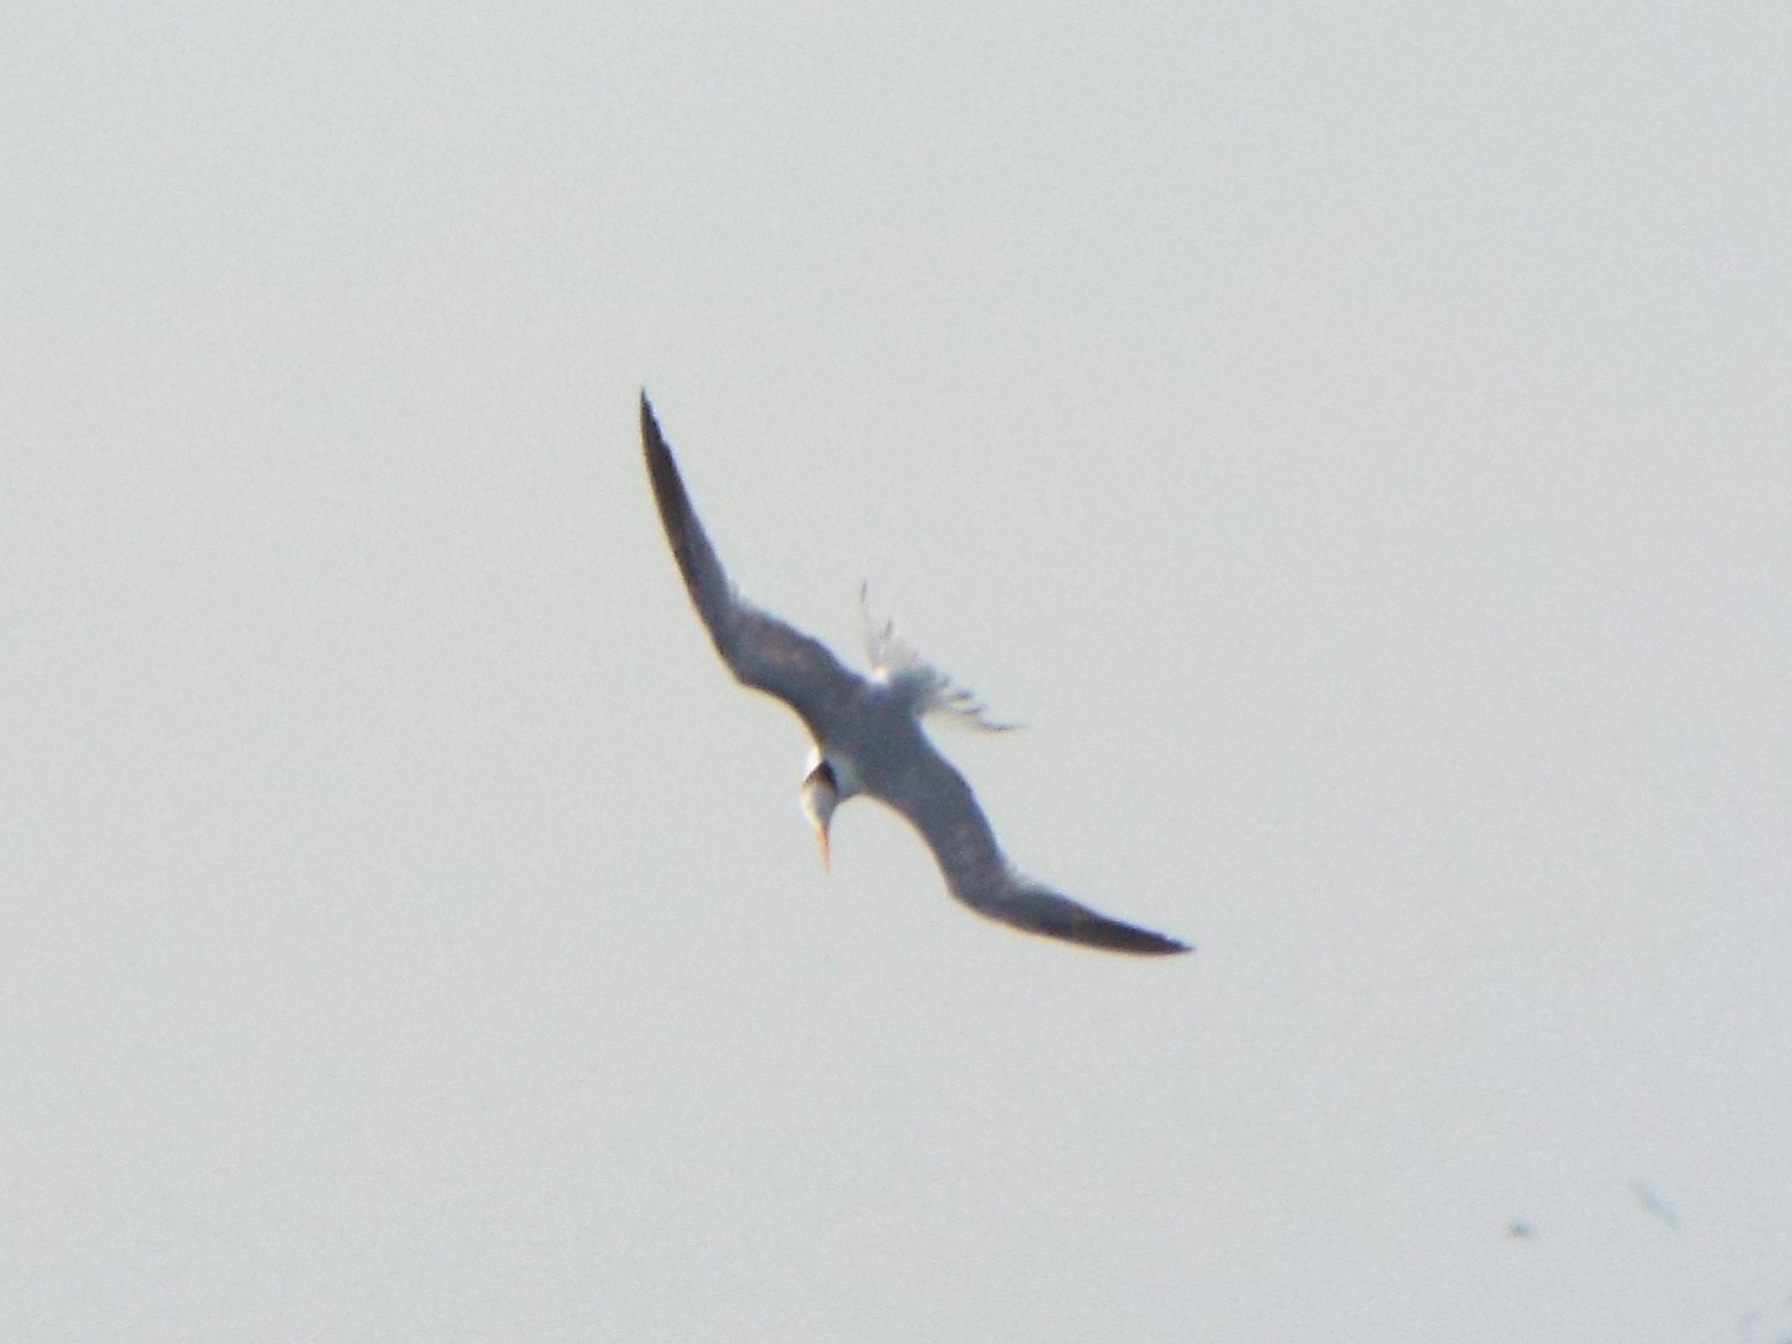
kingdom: Animalia
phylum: Chordata
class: Aves
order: Charadriiformes
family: Laridae
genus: Thalasseus
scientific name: Thalasseus maximus
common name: Royal tern
